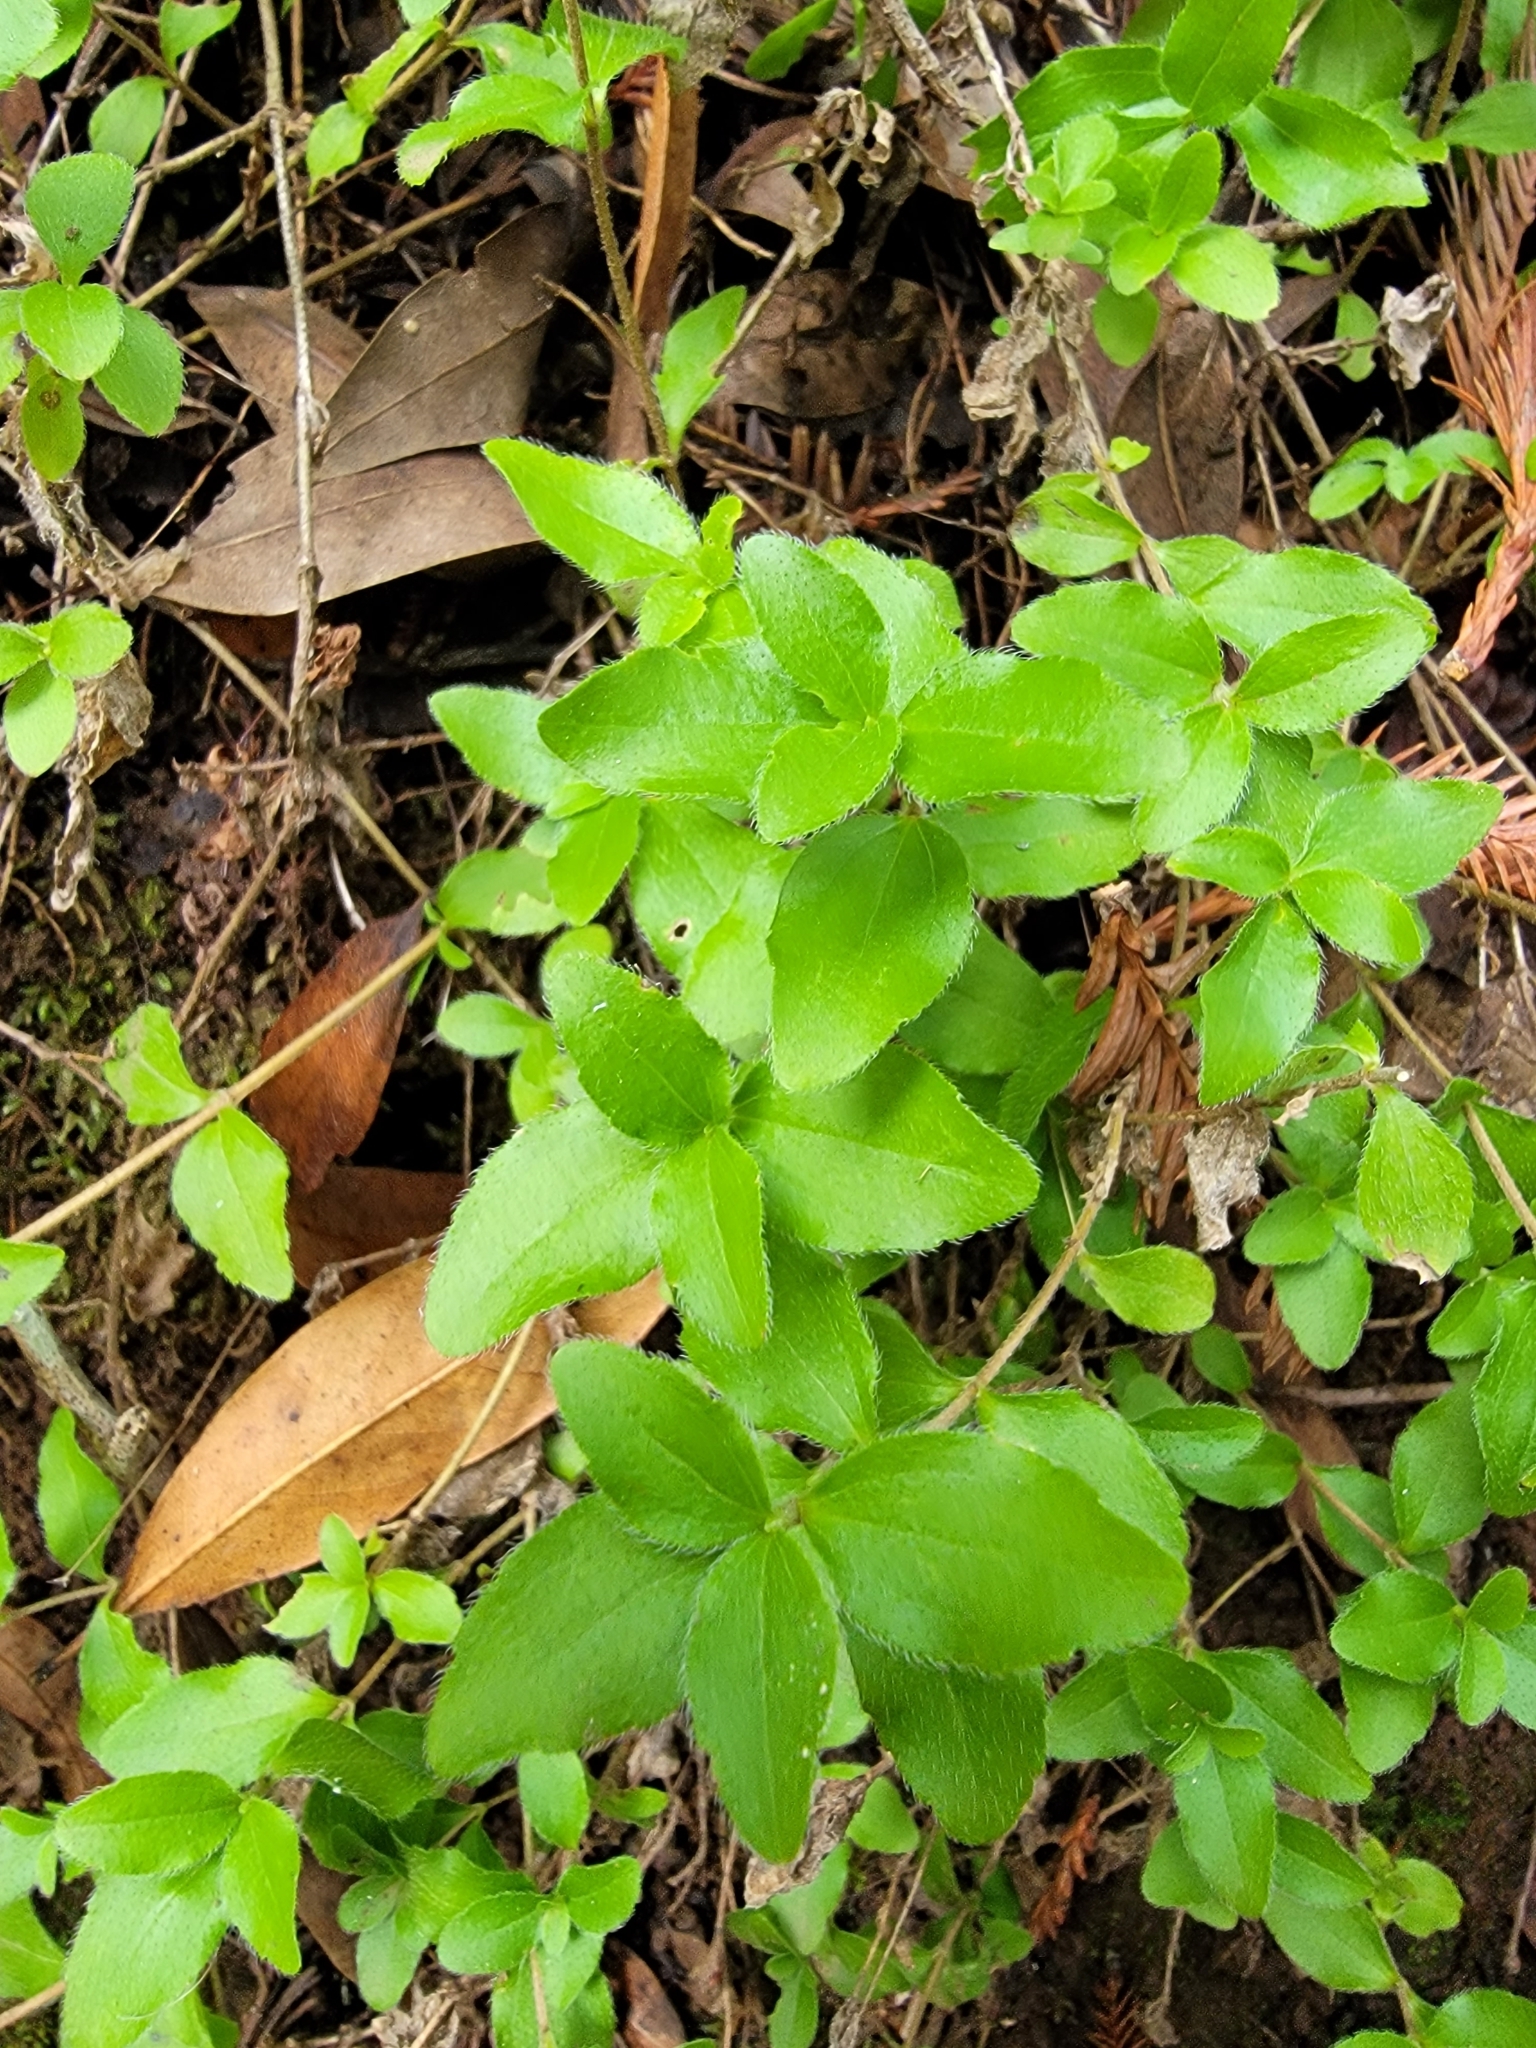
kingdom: Plantae
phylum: Tracheophyta
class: Magnoliopsida
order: Cornales
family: Hydrangeaceae
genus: Whipplea
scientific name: Whipplea modesta
